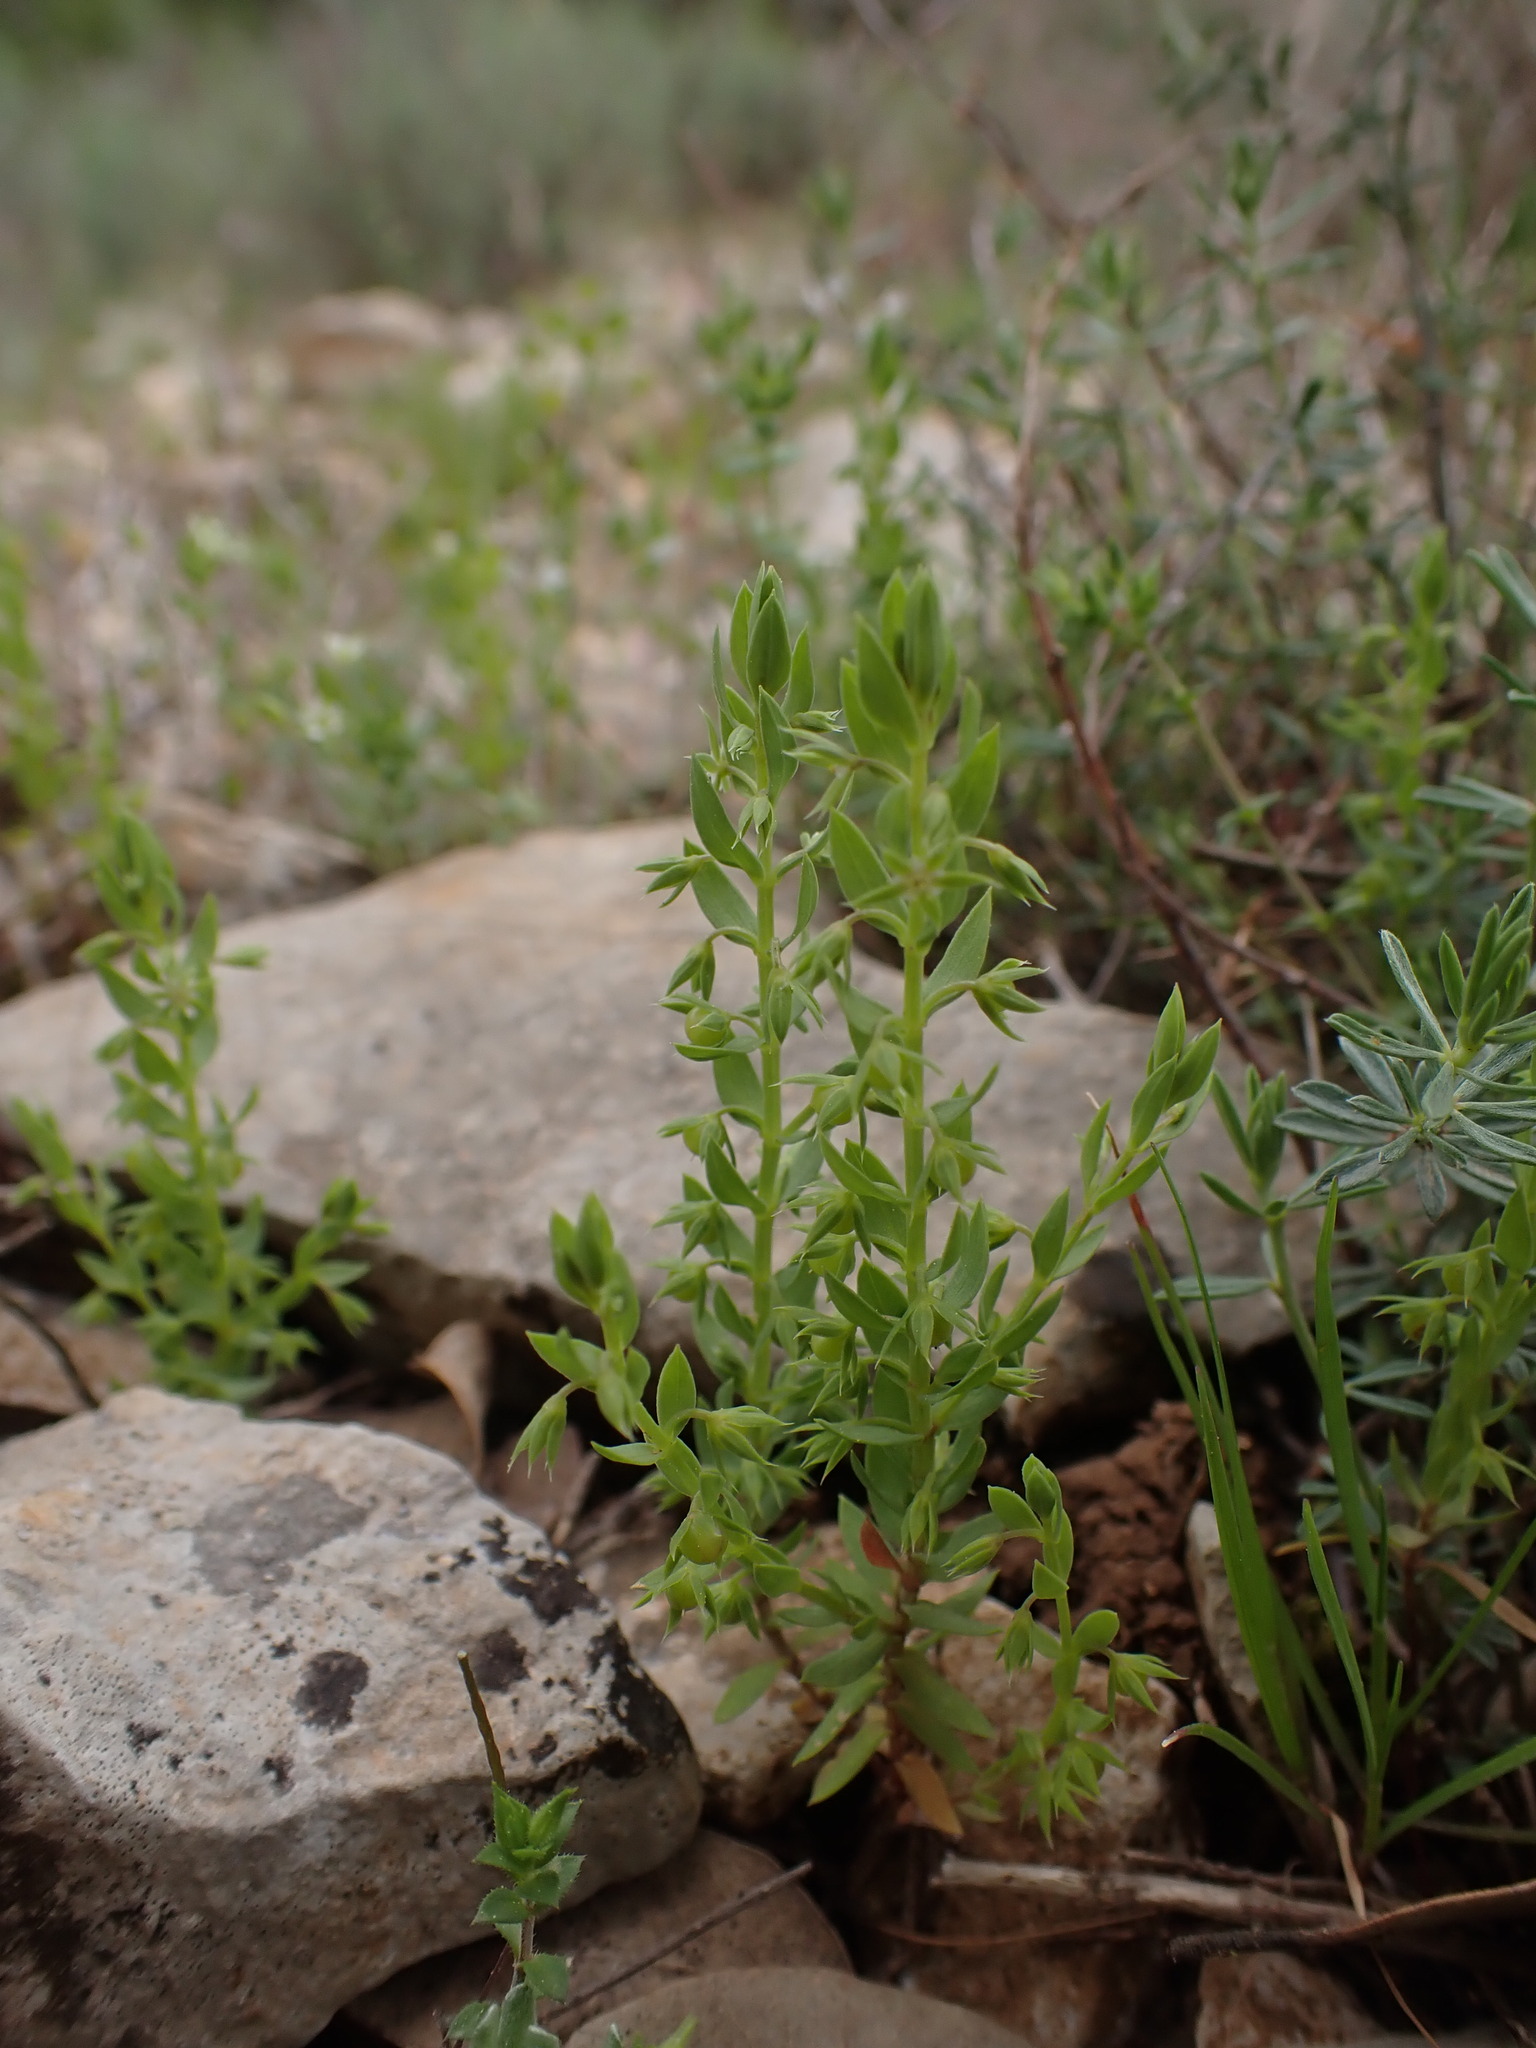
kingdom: Plantae
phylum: Tracheophyta
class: Magnoliopsida
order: Ericales
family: Primulaceae
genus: Lysimachia
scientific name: Lysimachia linum-stellatum
